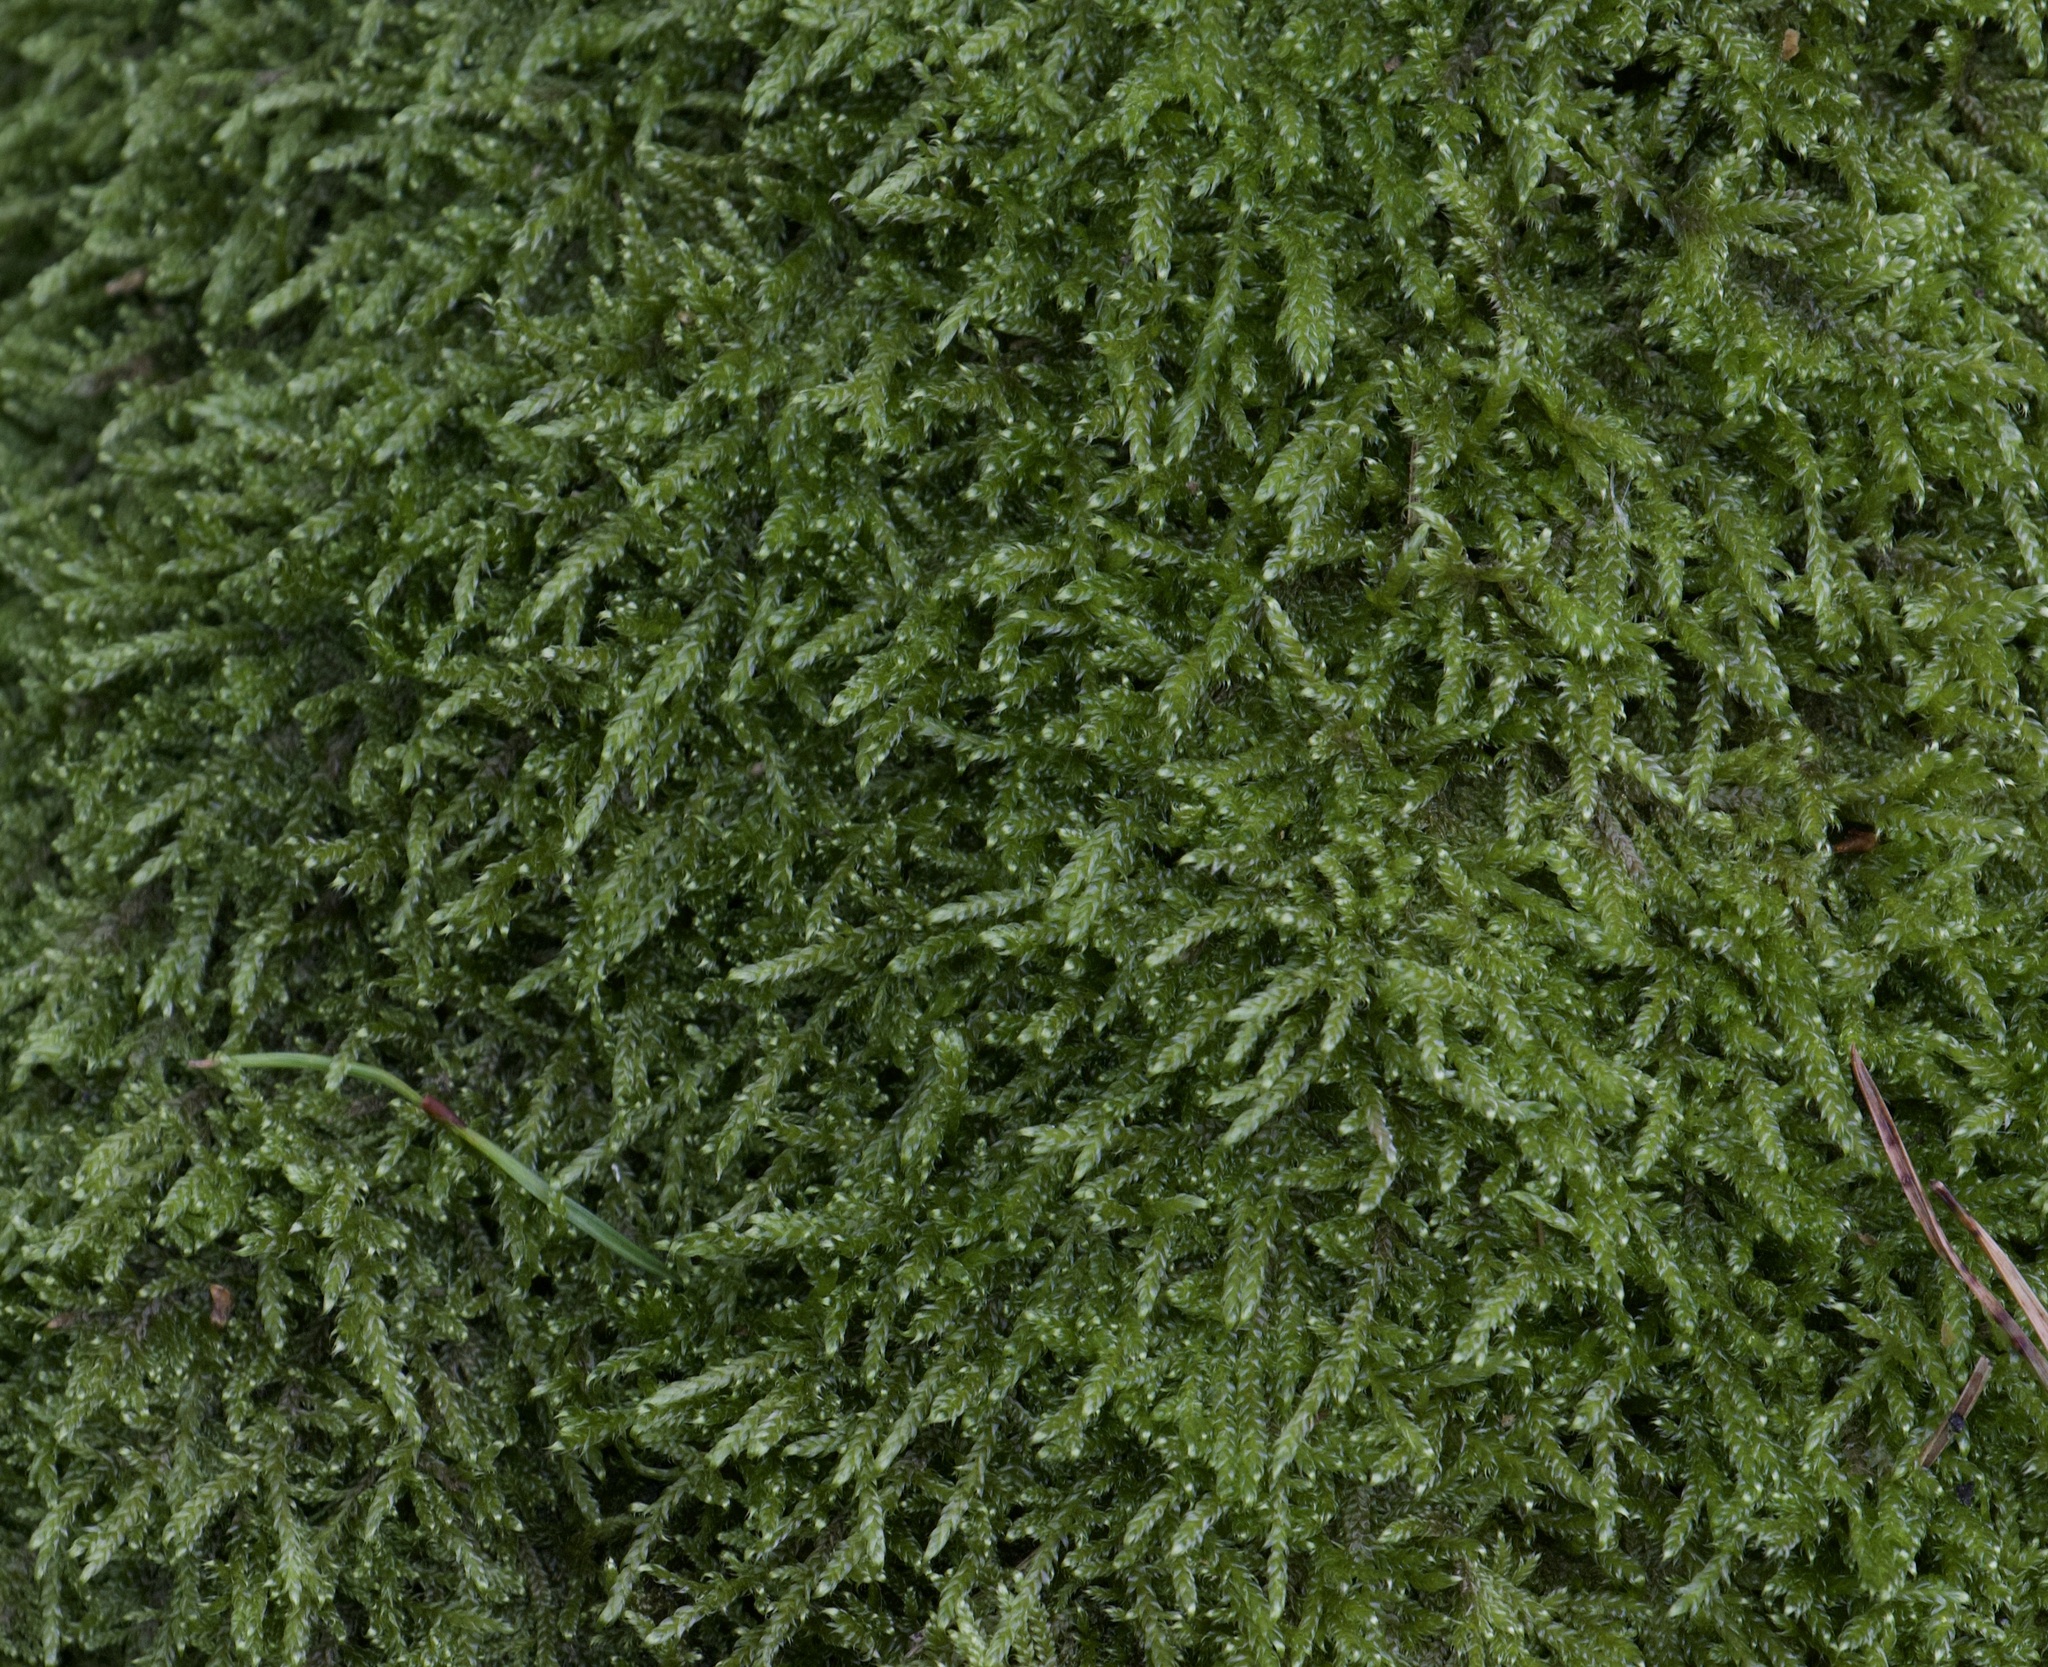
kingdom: Plantae
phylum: Bryophyta
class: Bryopsida
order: Hypnales
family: Hypnaceae
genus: Hypnum
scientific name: Hypnum cupressiforme
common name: Cypress-leaved plait-moss
